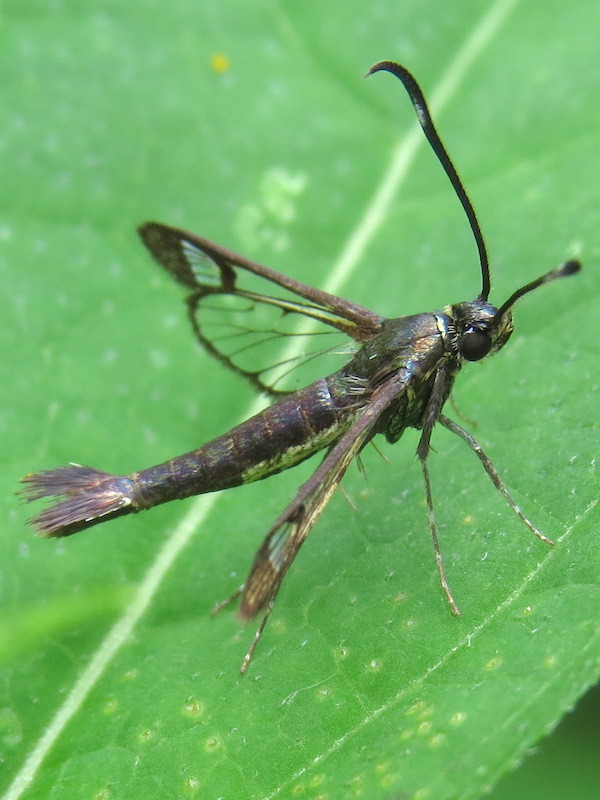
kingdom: Animalia
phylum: Arthropoda
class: Insecta
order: Lepidoptera
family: Sesiidae
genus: Carmenta
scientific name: Carmenta ithacae
